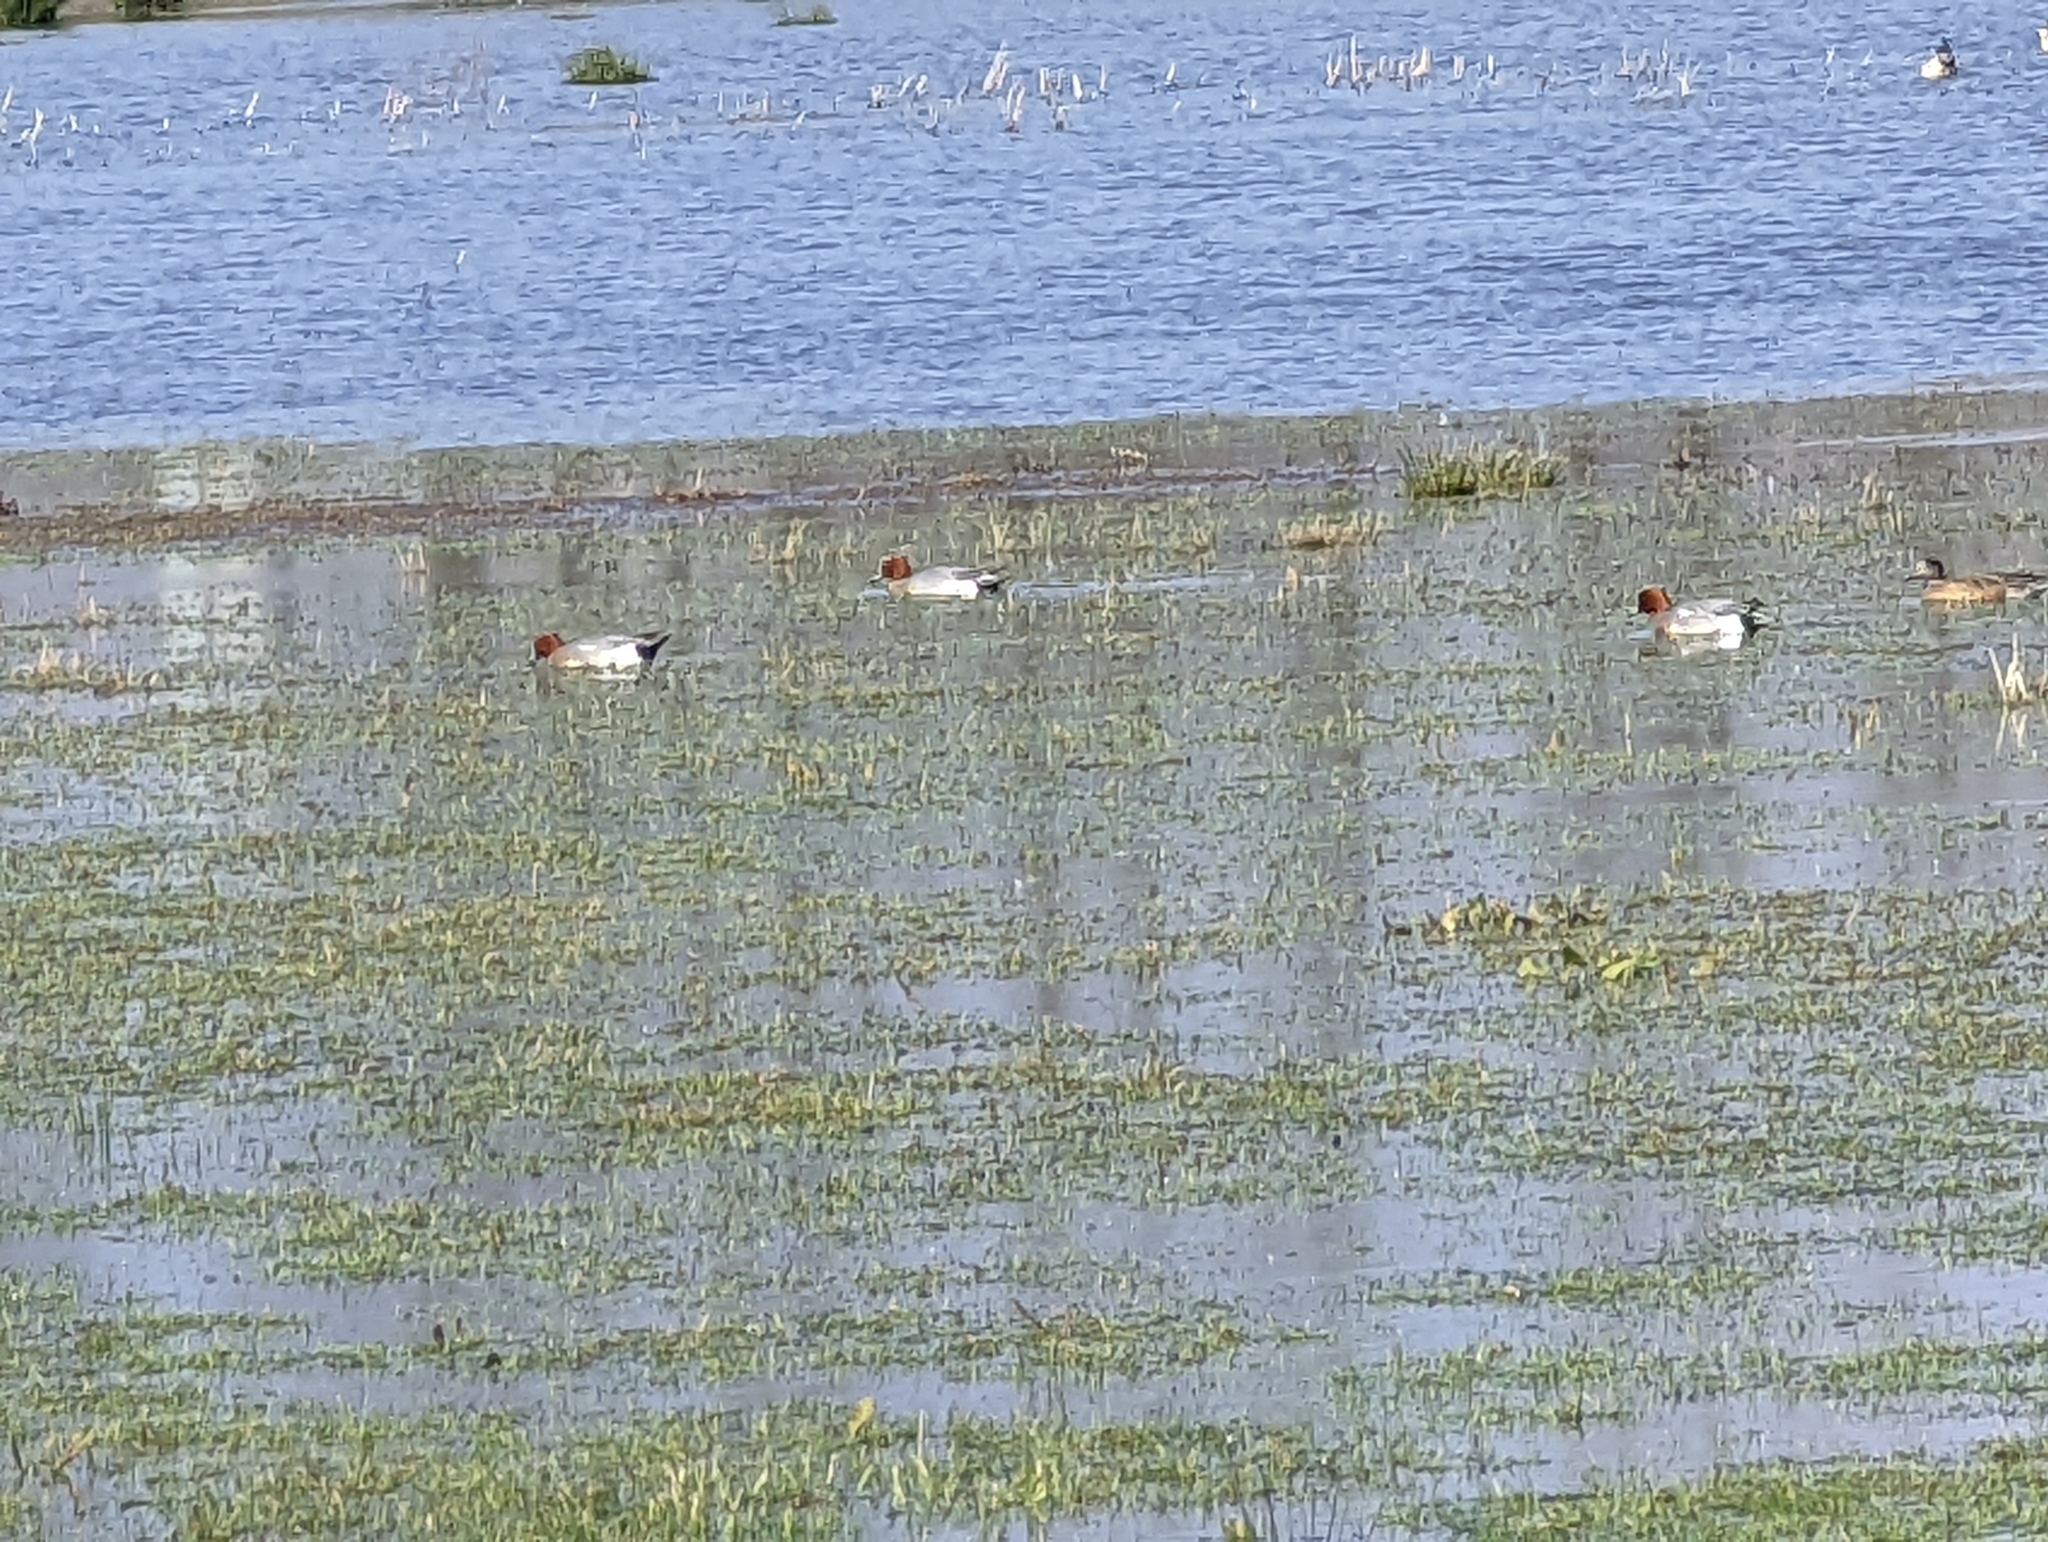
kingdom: Animalia
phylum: Chordata
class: Aves
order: Anseriformes
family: Anatidae
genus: Mareca
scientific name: Mareca penelope
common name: Eurasian wigeon
